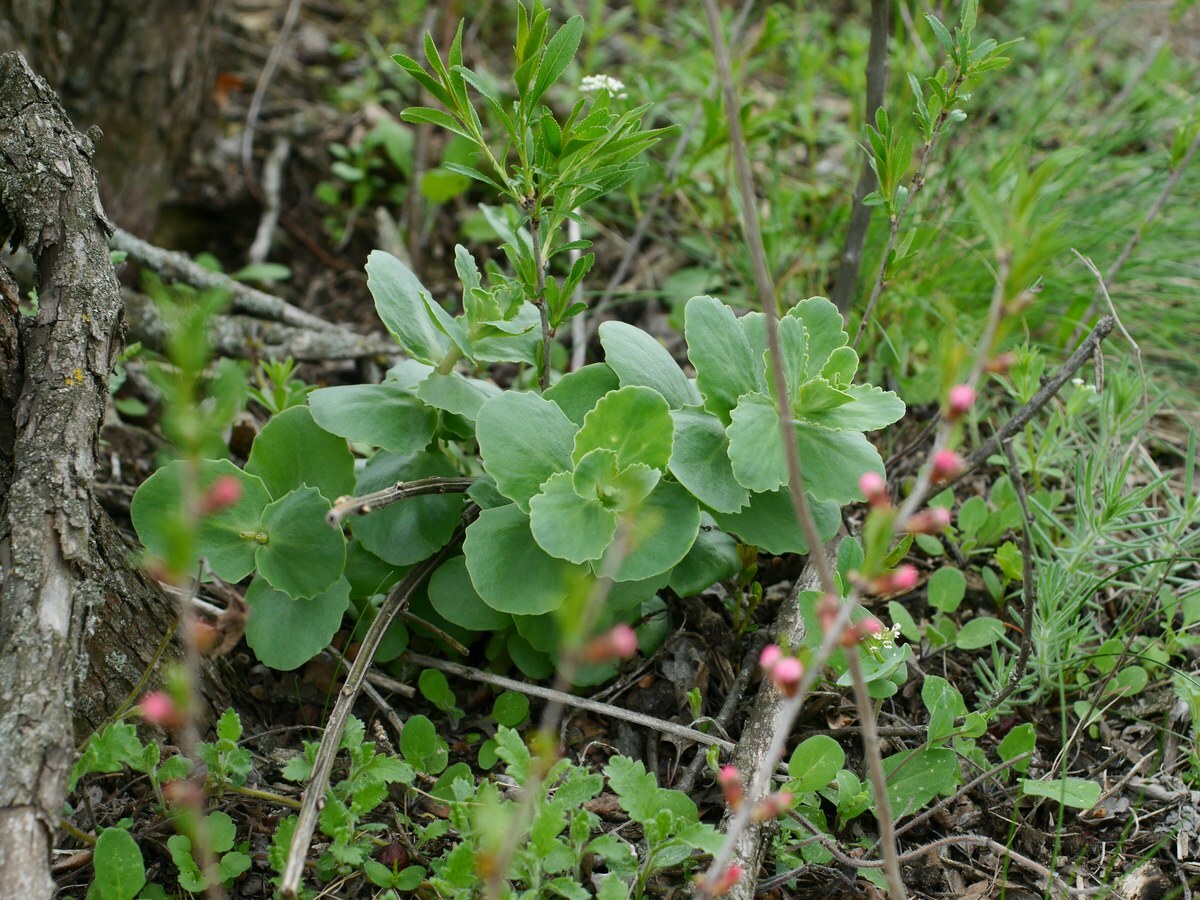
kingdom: Plantae
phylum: Tracheophyta
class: Magnoliopsida
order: Saxifragales
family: Crassulaceae
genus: Hylotelephium
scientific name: Hylotelephium maximum
